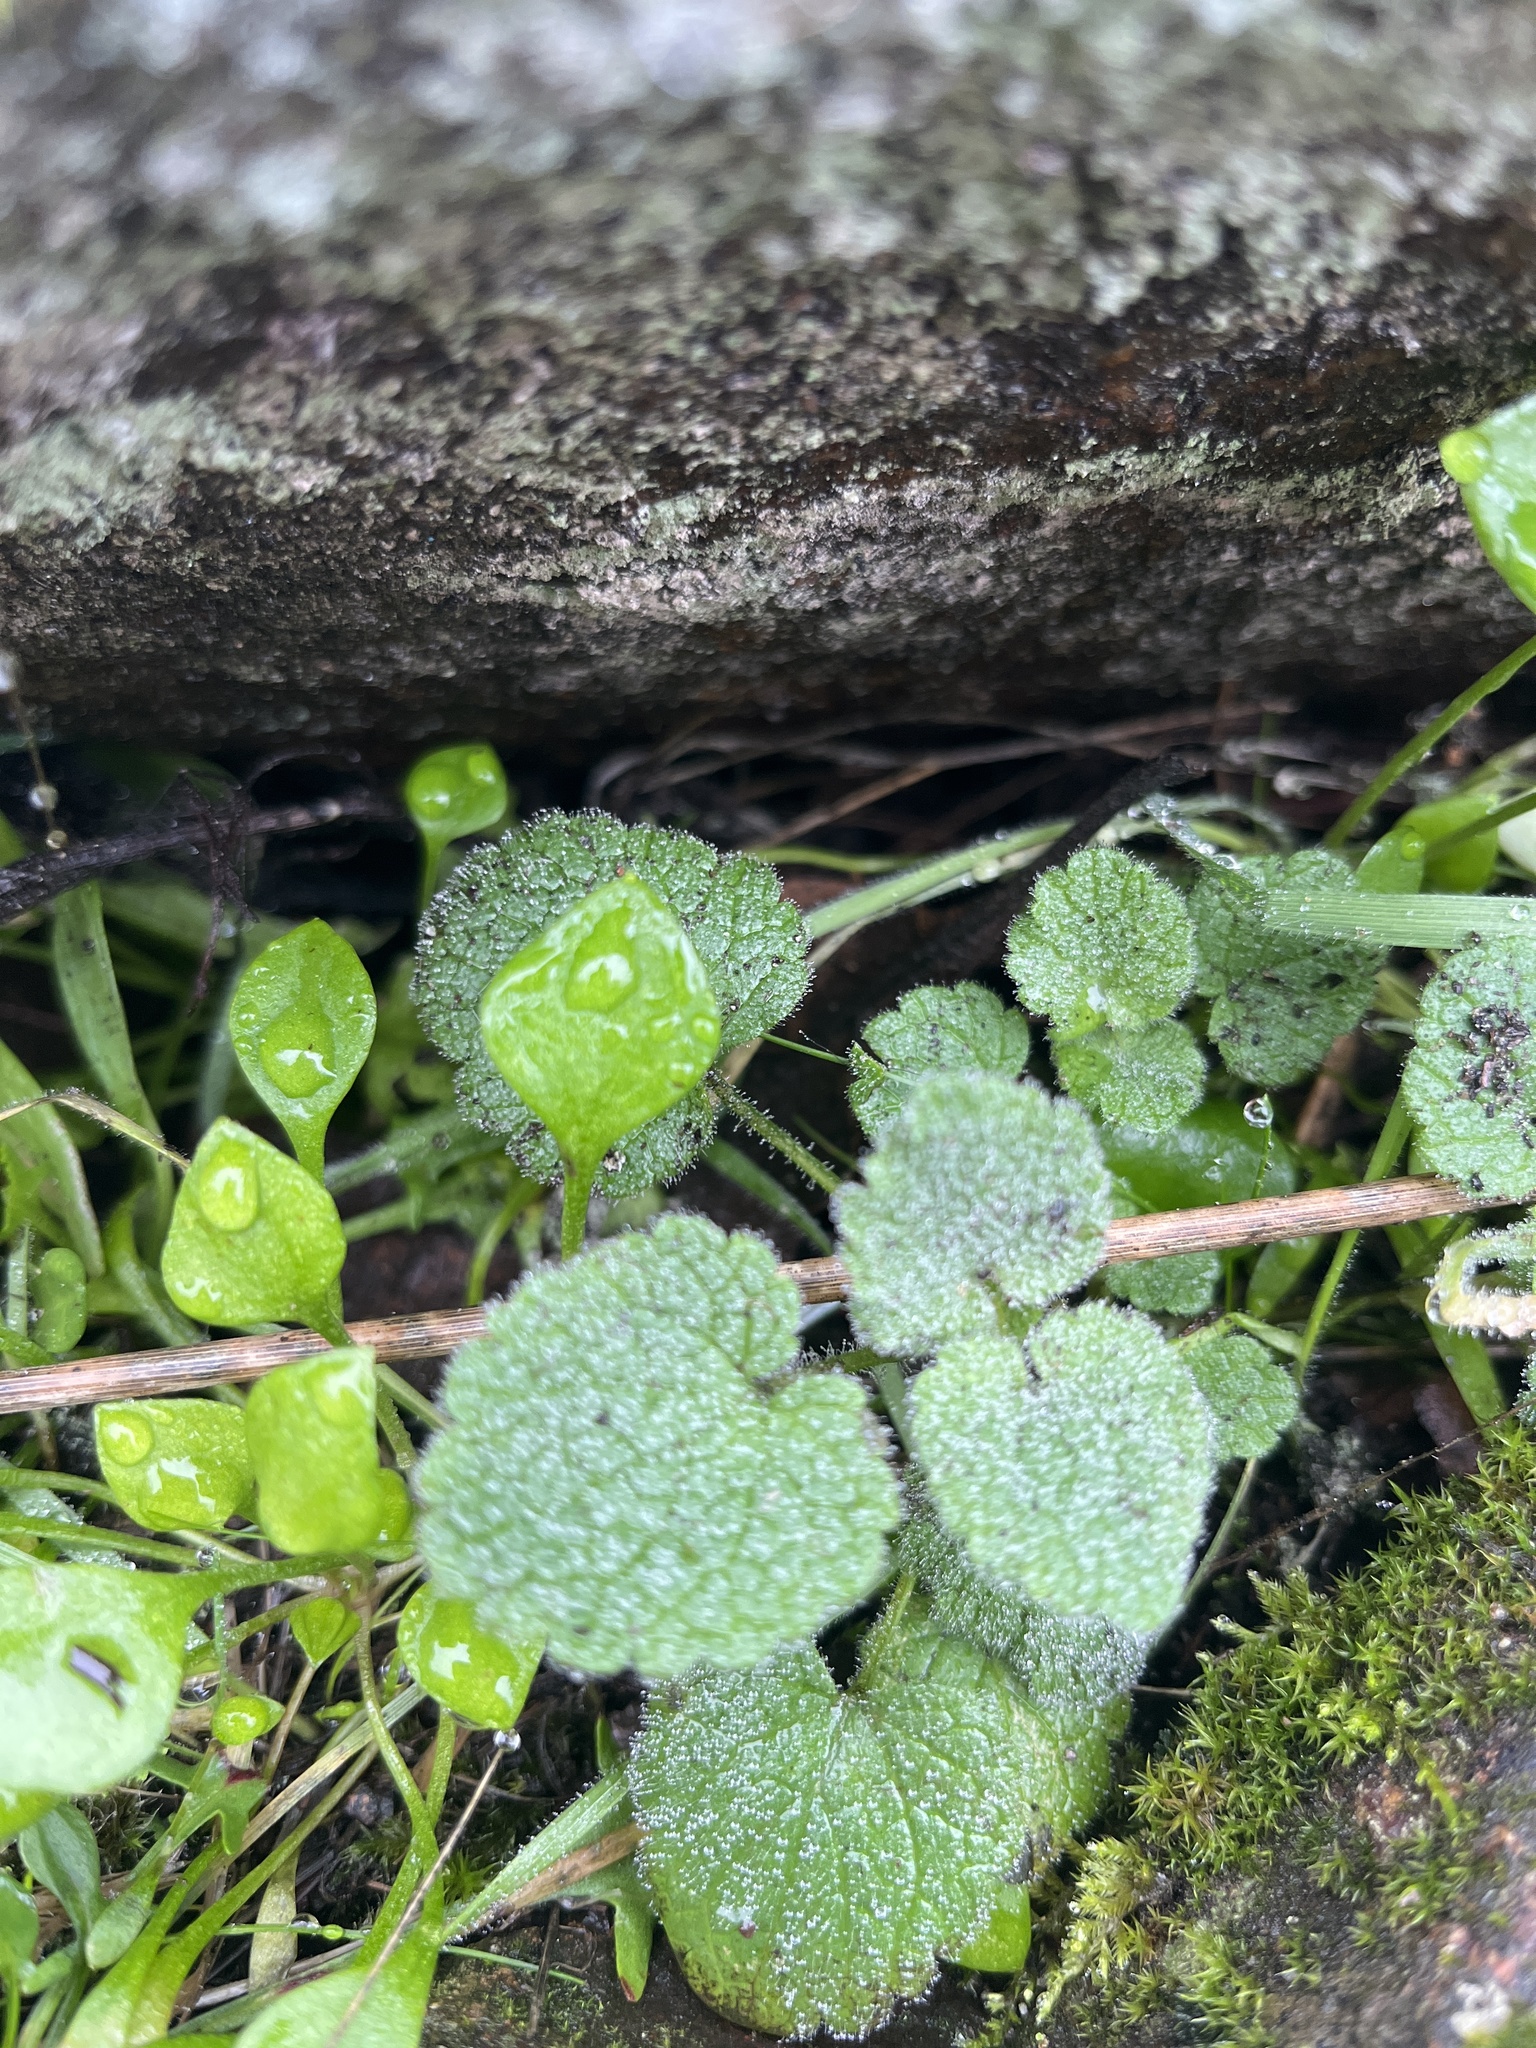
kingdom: Plantae
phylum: Tracheophyta
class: Magnoliopsida
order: Lamiales
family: Lamiaceae
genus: Lamium
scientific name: Lamium purpureum
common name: Red dead-nettle
